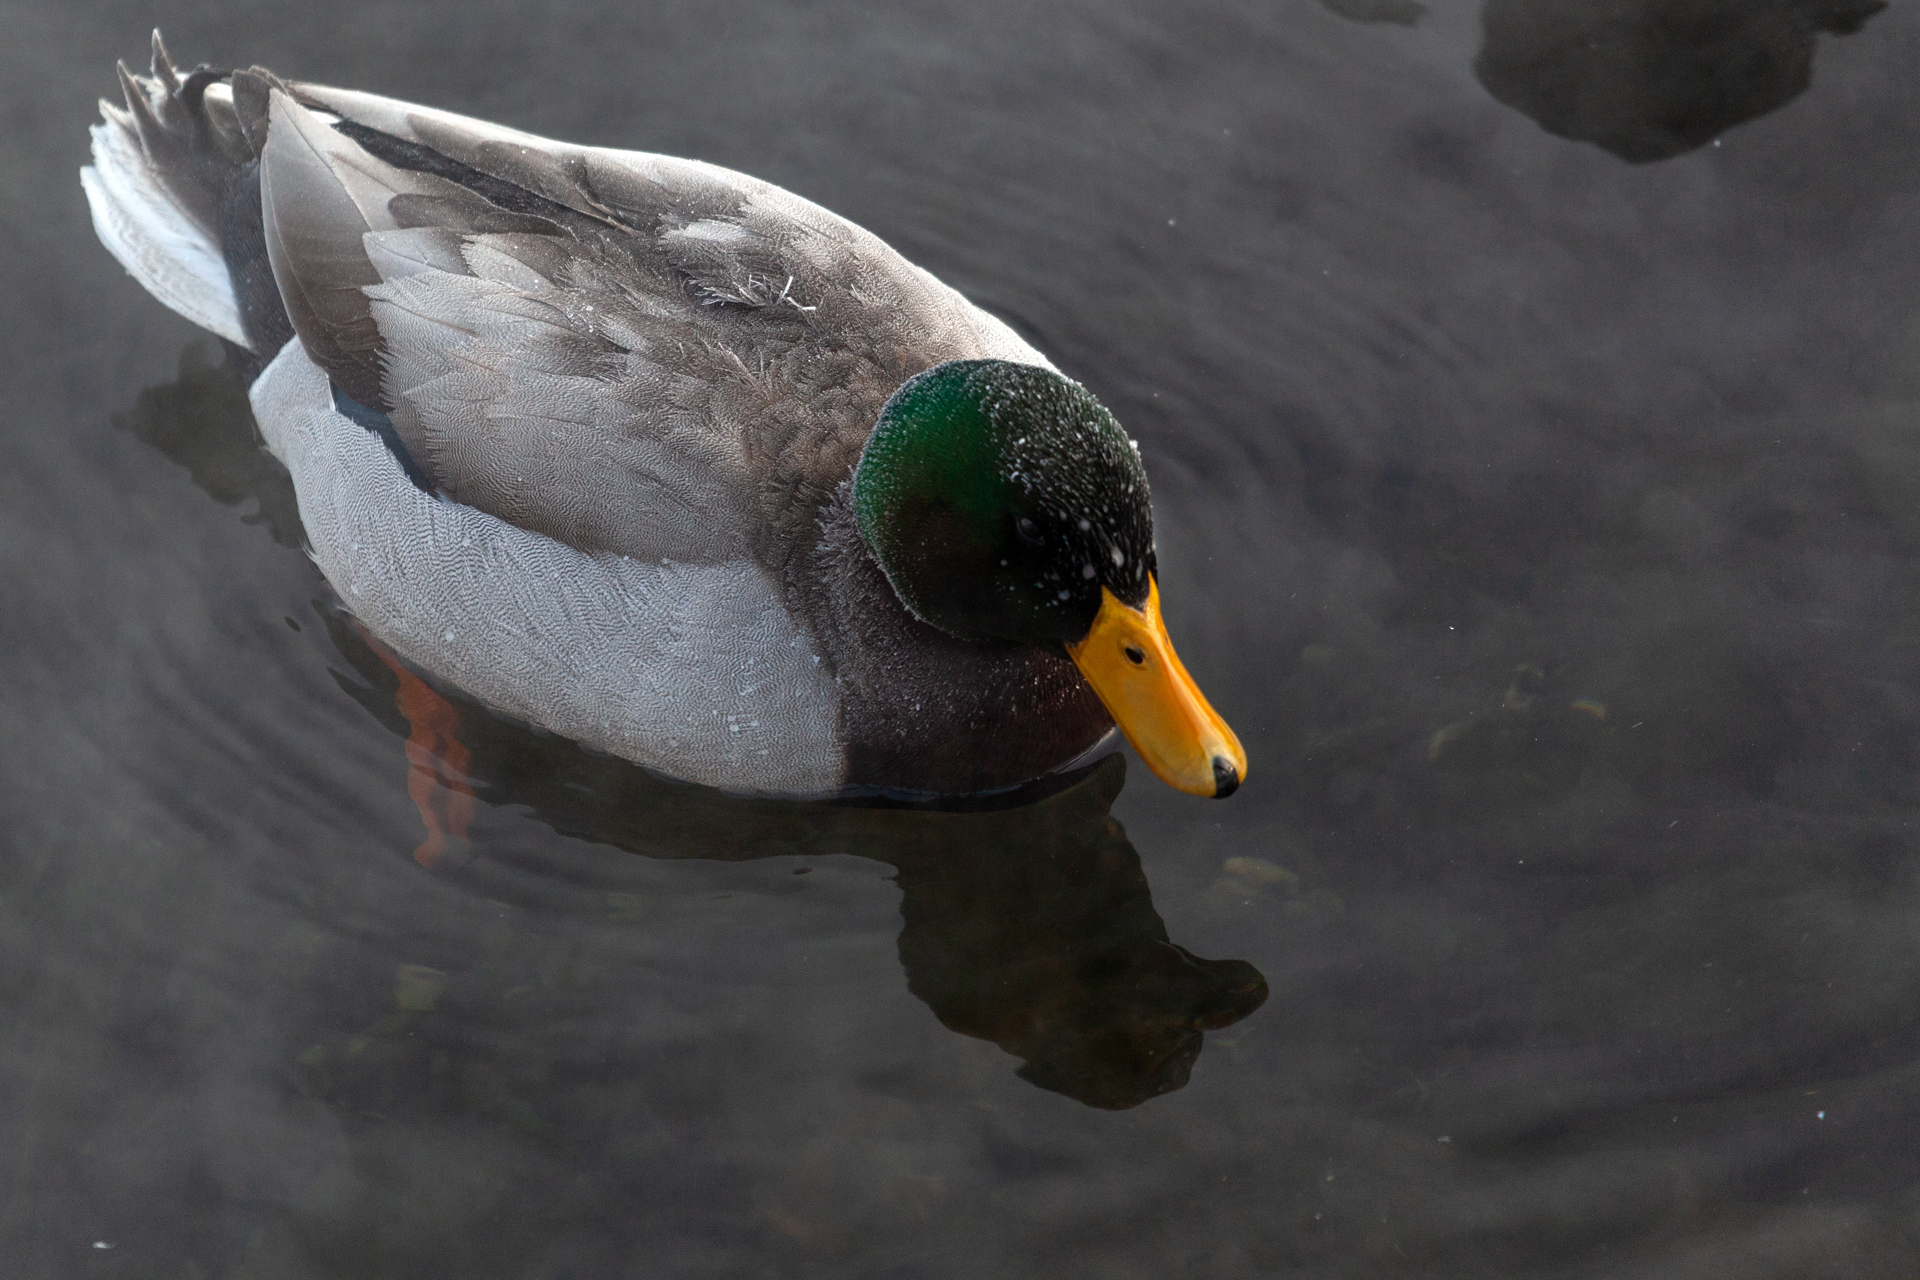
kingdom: Animalia
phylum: Chordata
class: Aves
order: Anseriformes
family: Anatidae
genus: Anas
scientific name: Anas platyrhynchos
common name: Mallard
